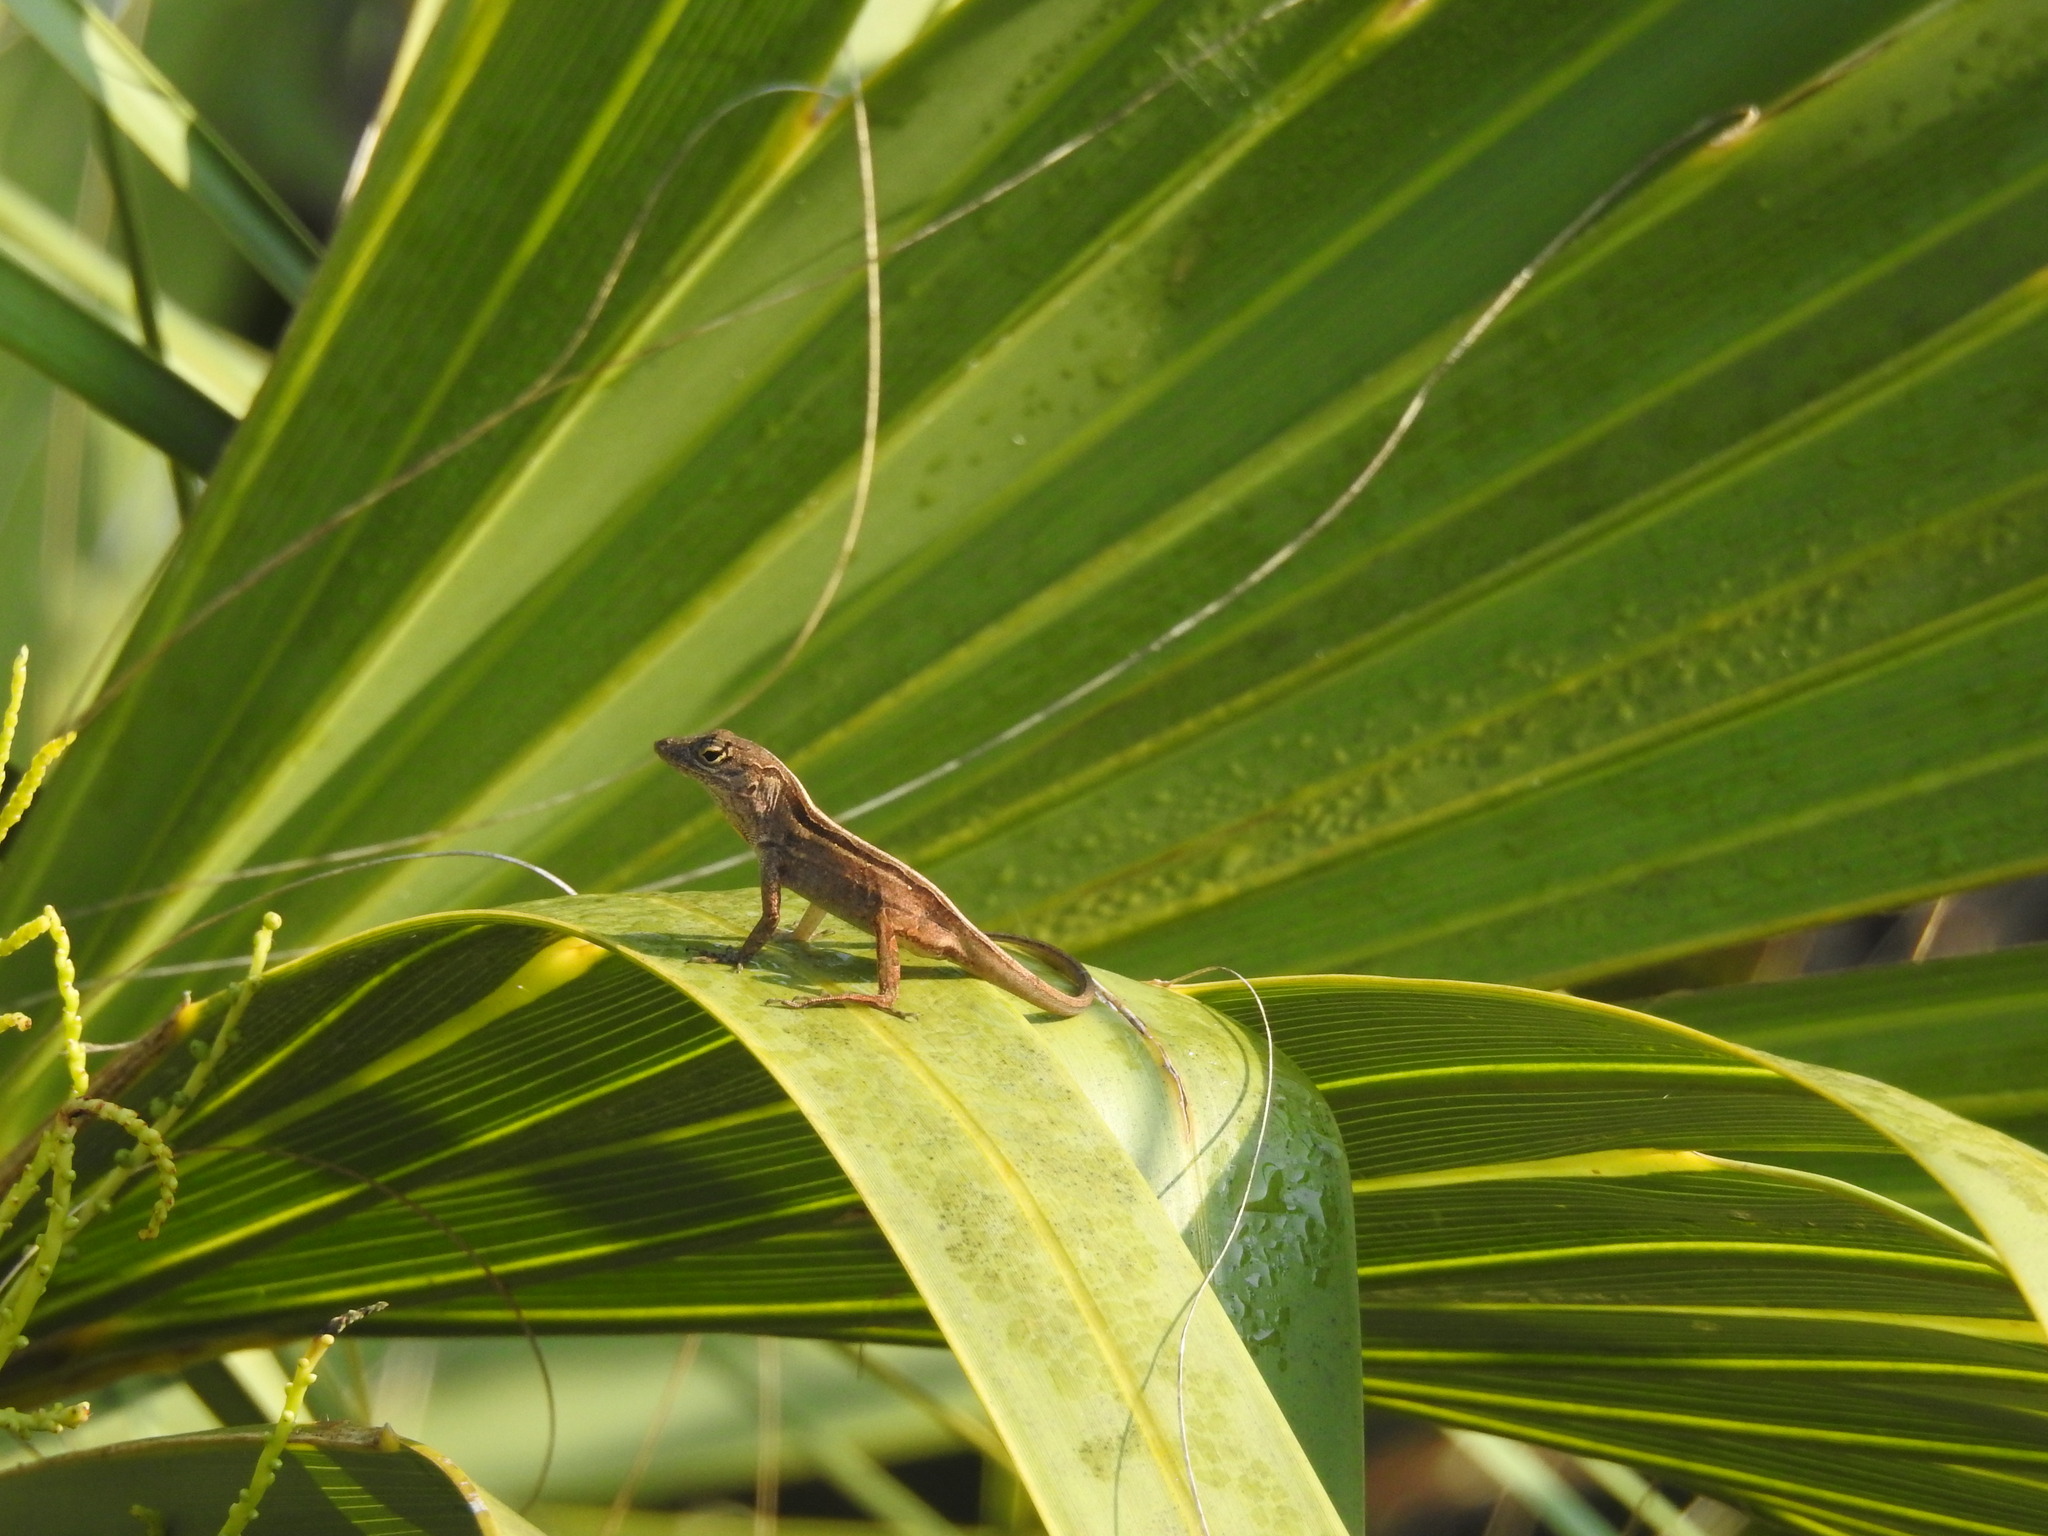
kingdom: Animalia
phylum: Chordata
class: Squamata
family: Dactyloidae
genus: Anolis
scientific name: Anolis sagrei
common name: Brown anole
